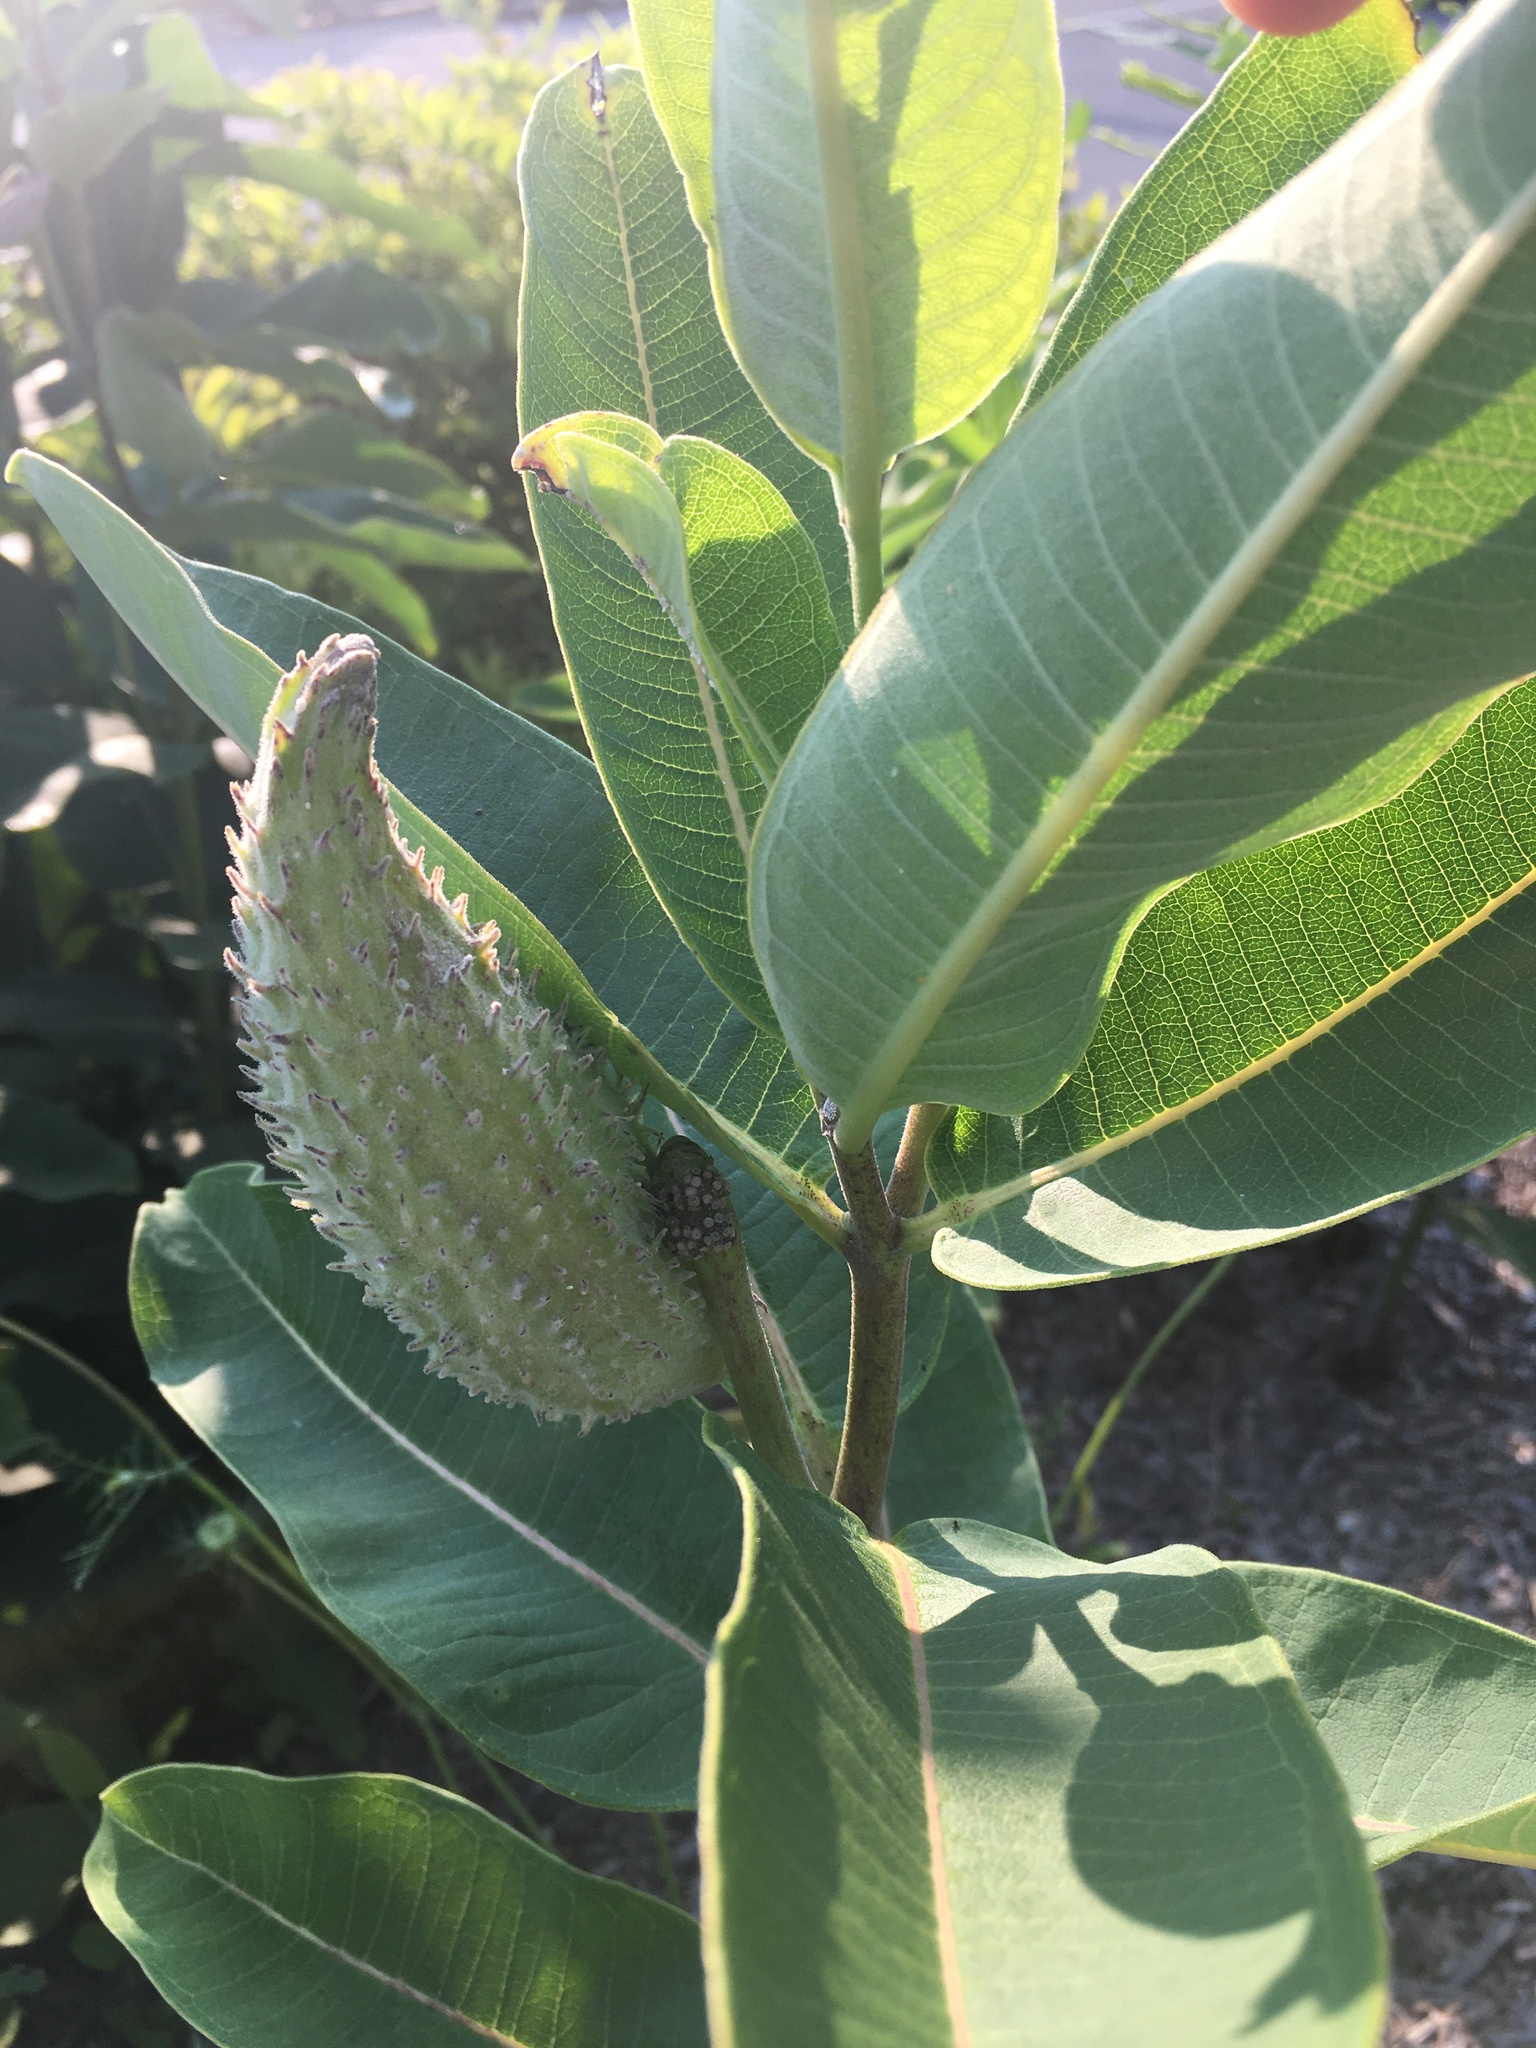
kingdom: Plantae
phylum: Tracheophyta
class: Magnoliopsida
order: Gentianales
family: Apocynaceae
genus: Asclepias
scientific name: Asclepias syriaca
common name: Common milkweed
